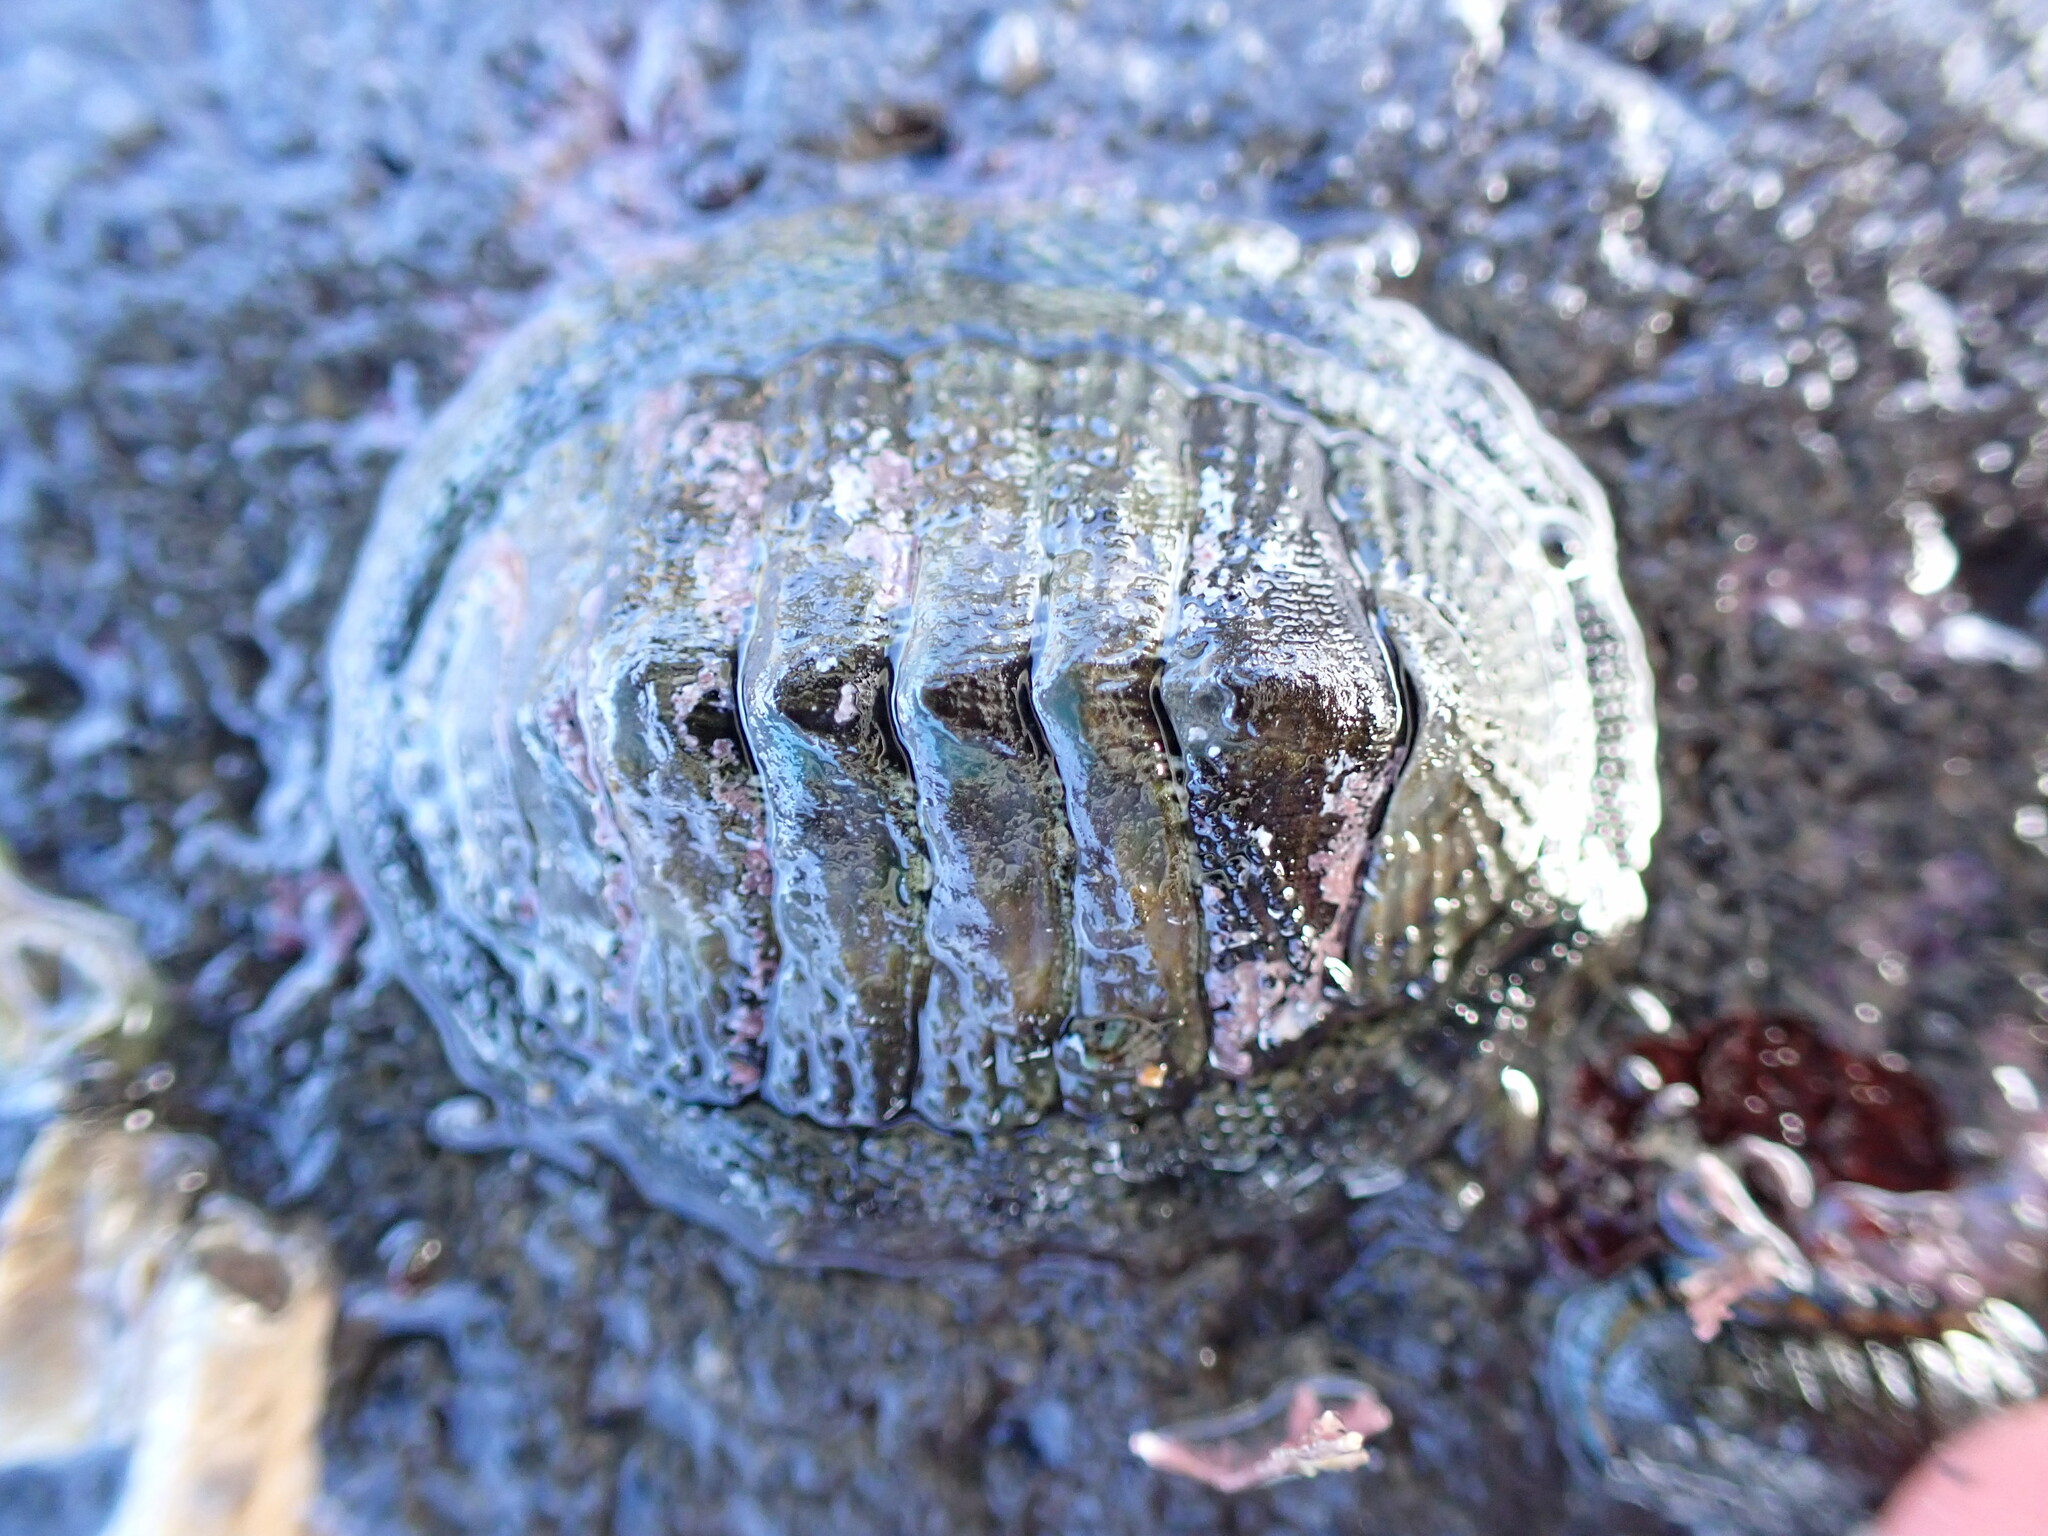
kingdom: Animalia
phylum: Mollusca
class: Polyplacophora
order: Chitonida
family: Chitonidae
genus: Sypharochiton
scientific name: Sypharochiton pelliserpentis
